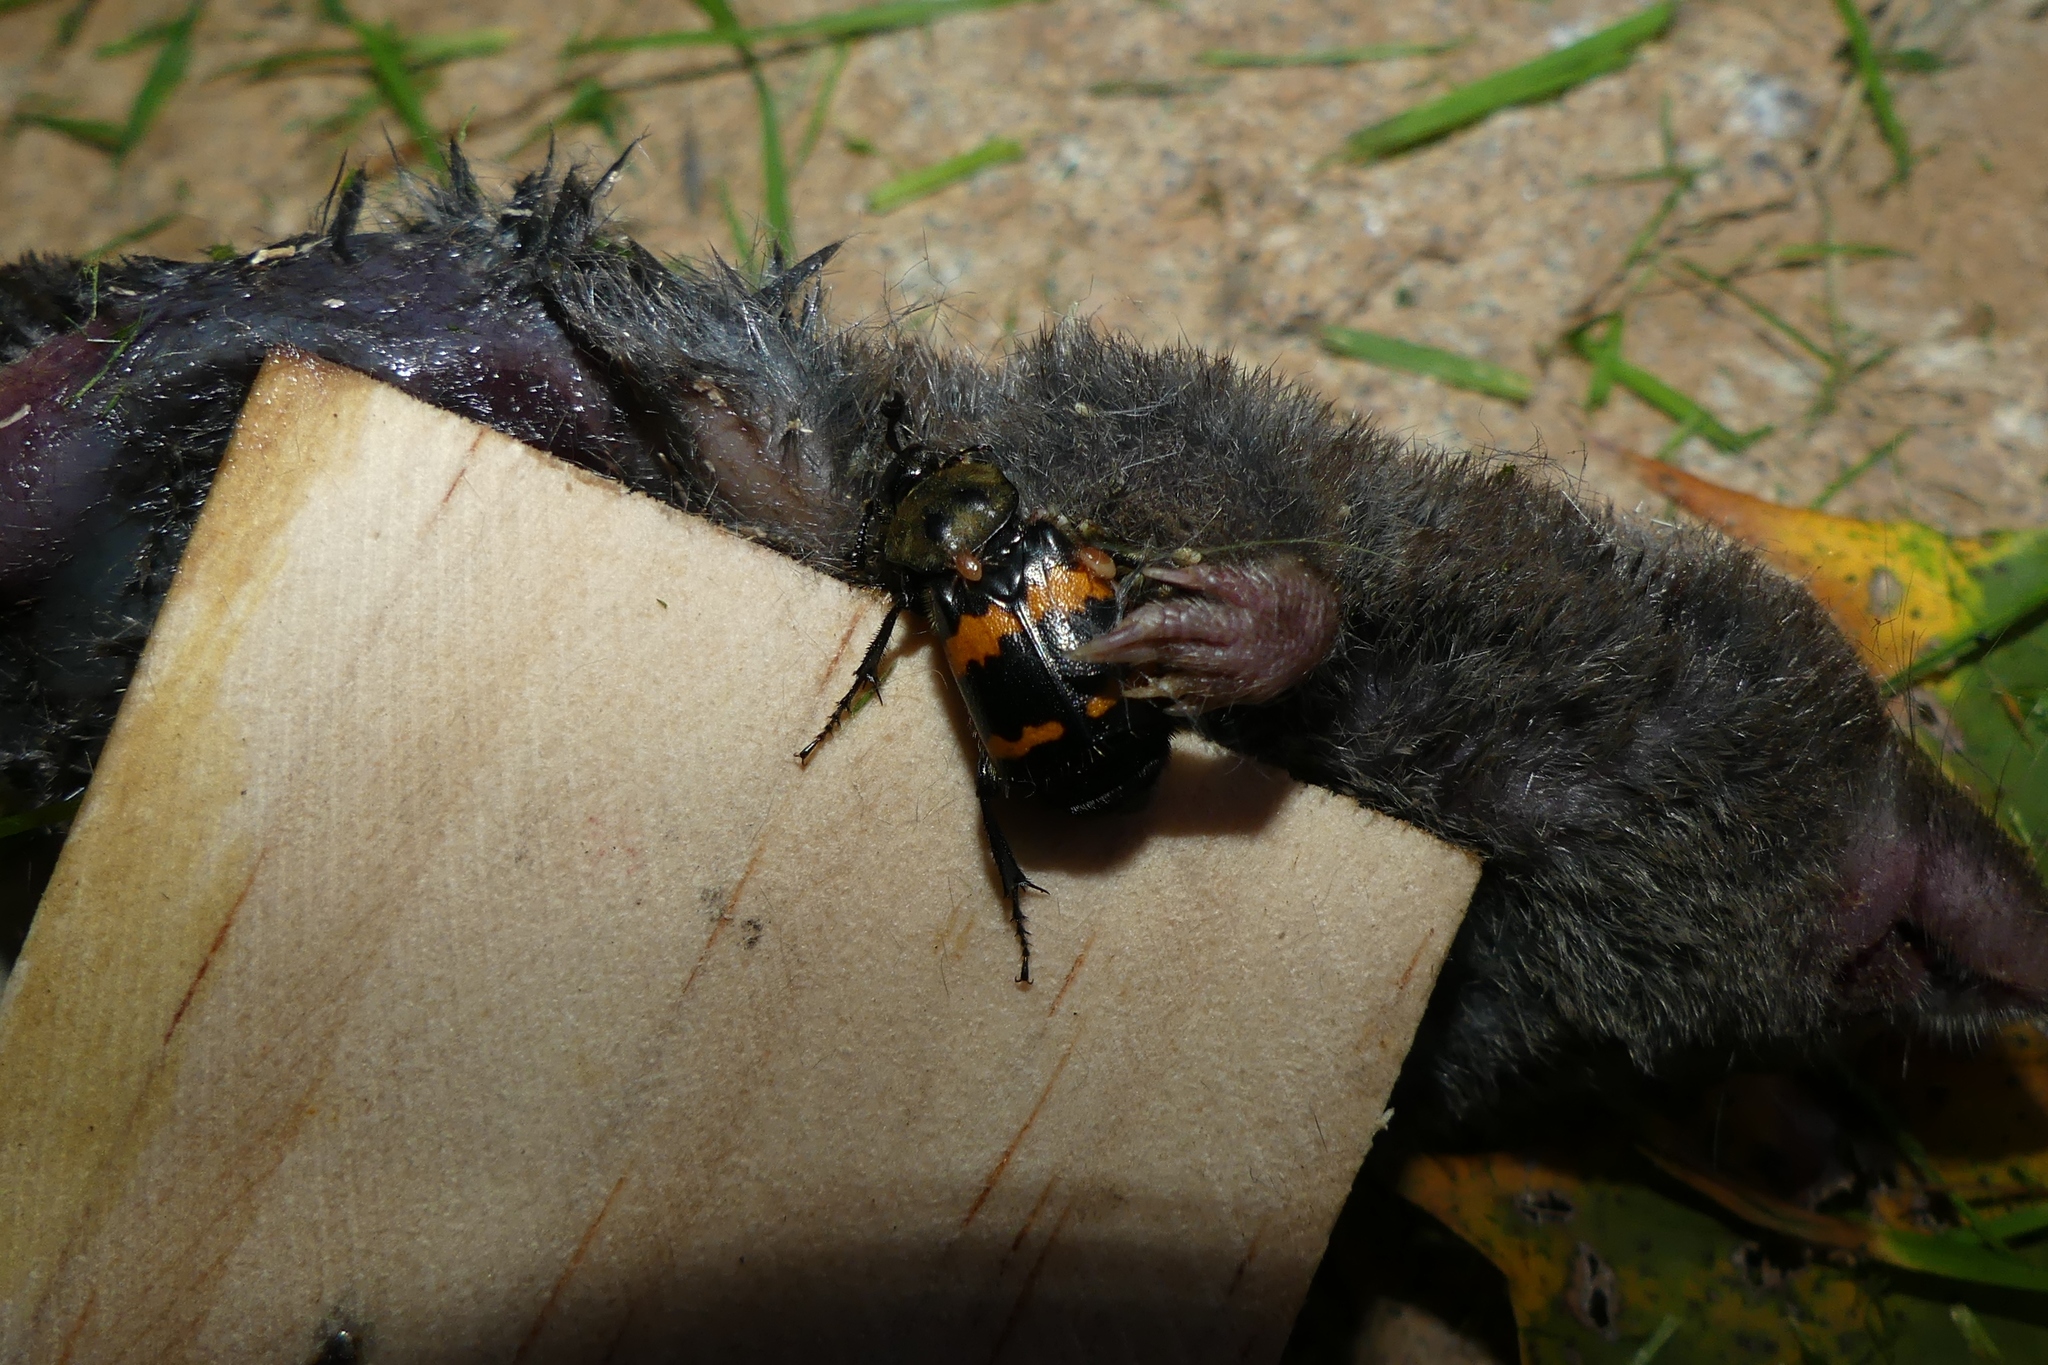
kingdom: Animalia
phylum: Arthropoda
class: Insecta
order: Coleoptera
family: Staphylinidae
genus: Nicrophorus
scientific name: Nicrophorus tomentosus
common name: Tomentose burying beetle
